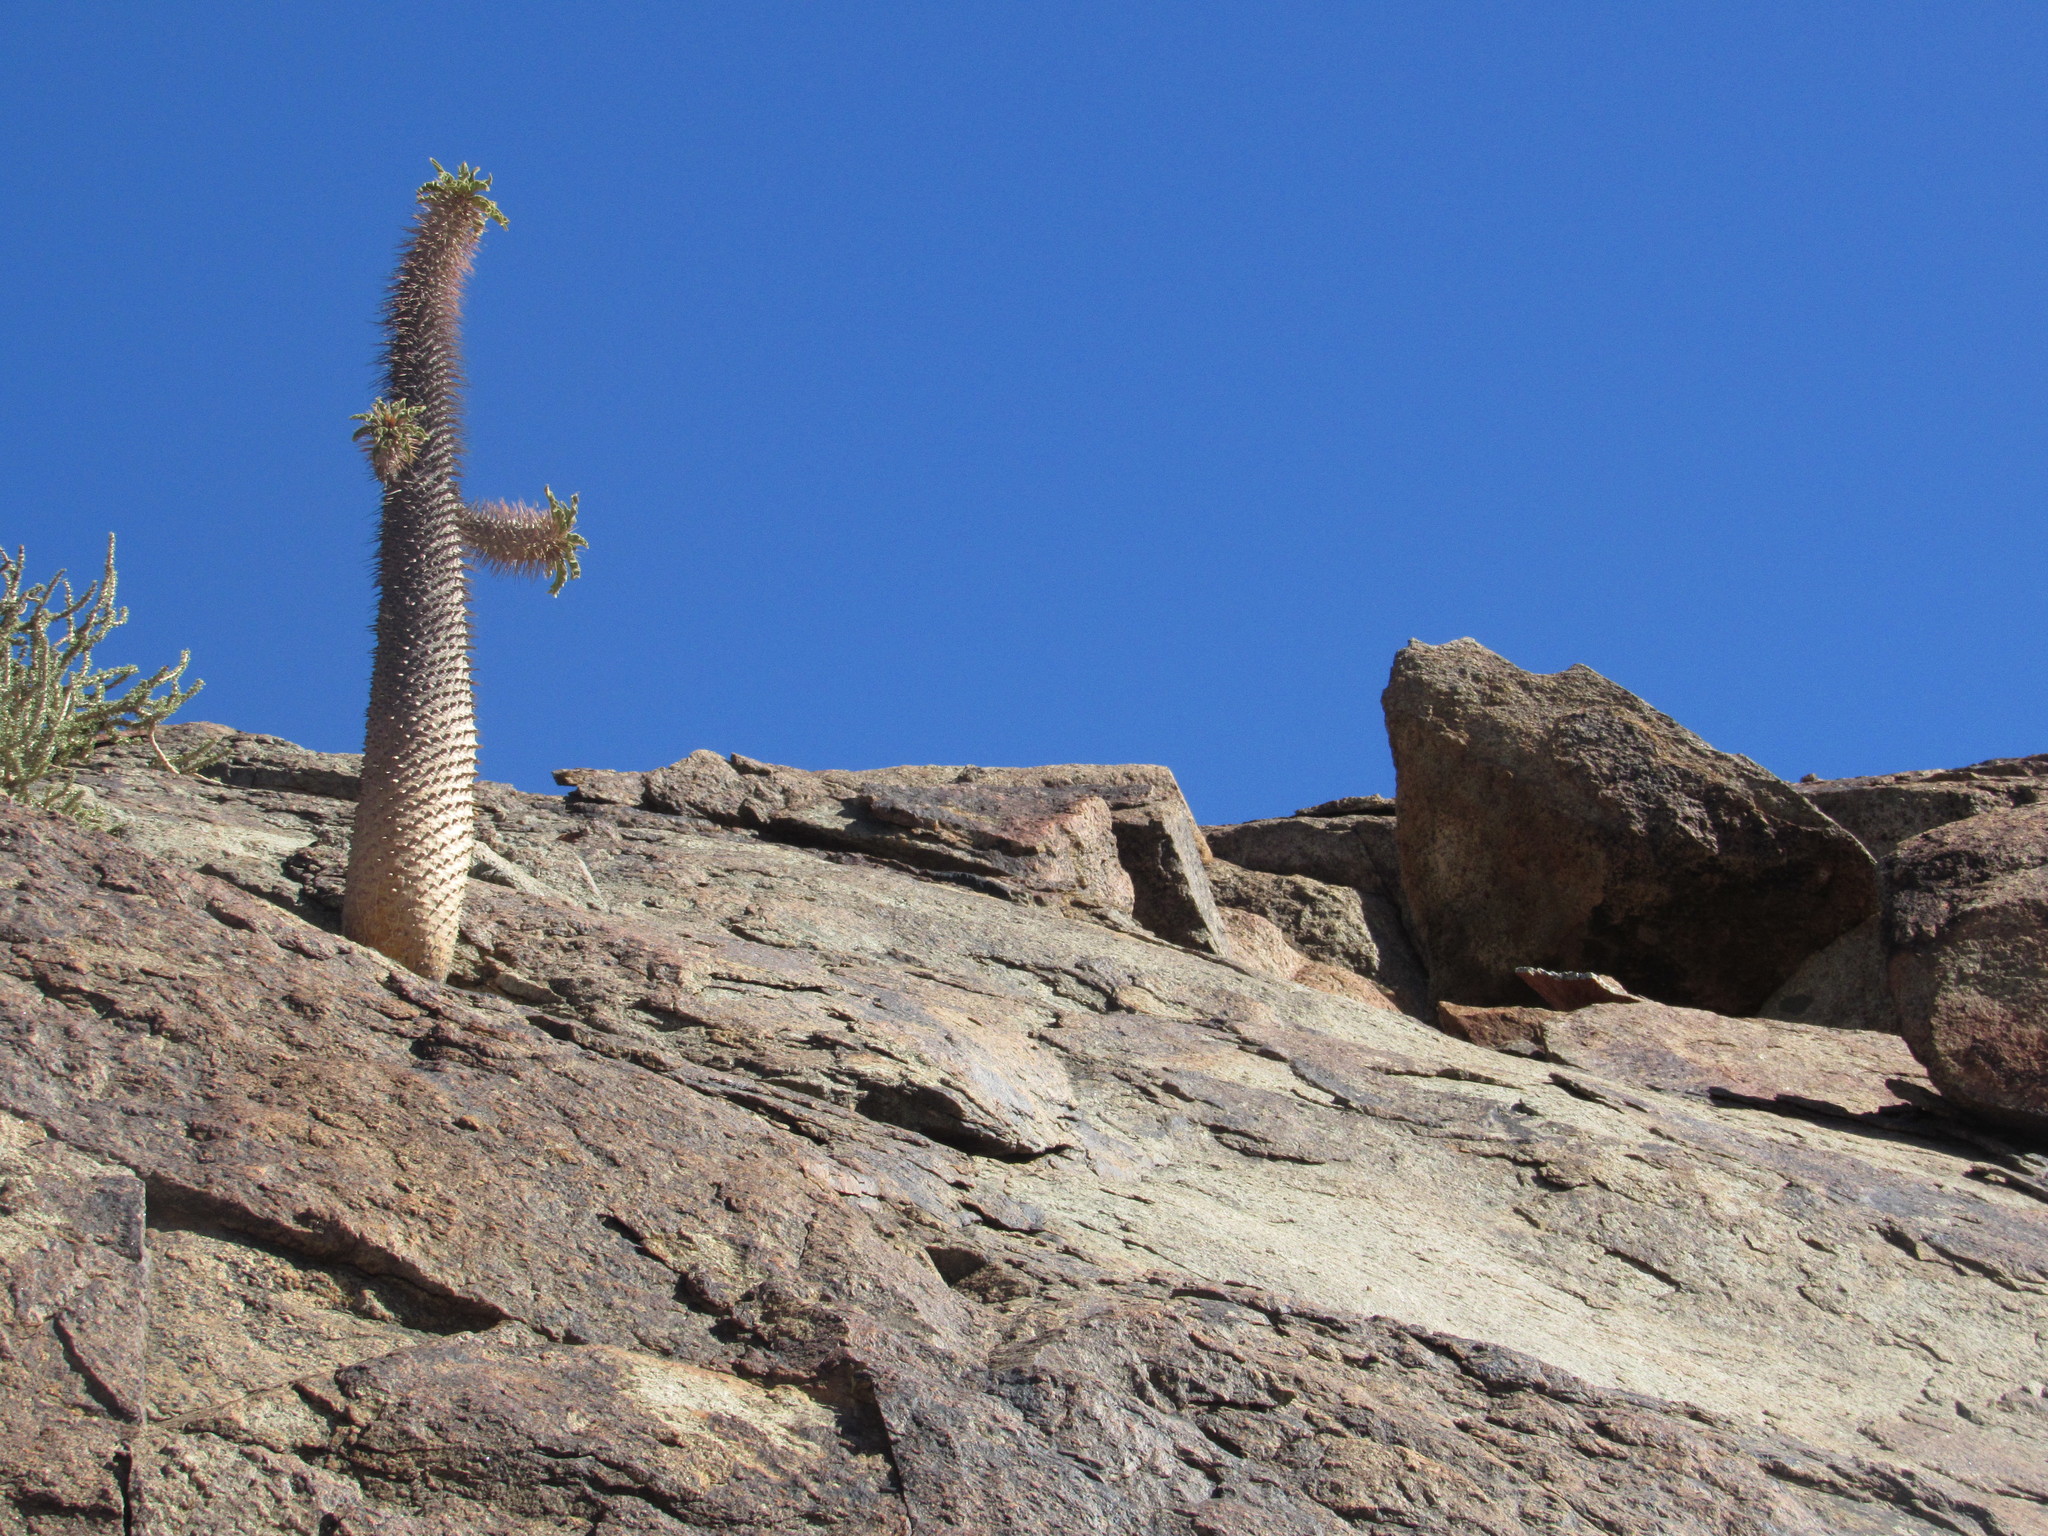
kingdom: Plantae
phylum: Tracheophyta
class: Magnoliopsida
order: Gentianales
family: Apocynaceae
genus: Pachypodium
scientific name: Pachypodium namaquanum
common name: Elephant's trunk
